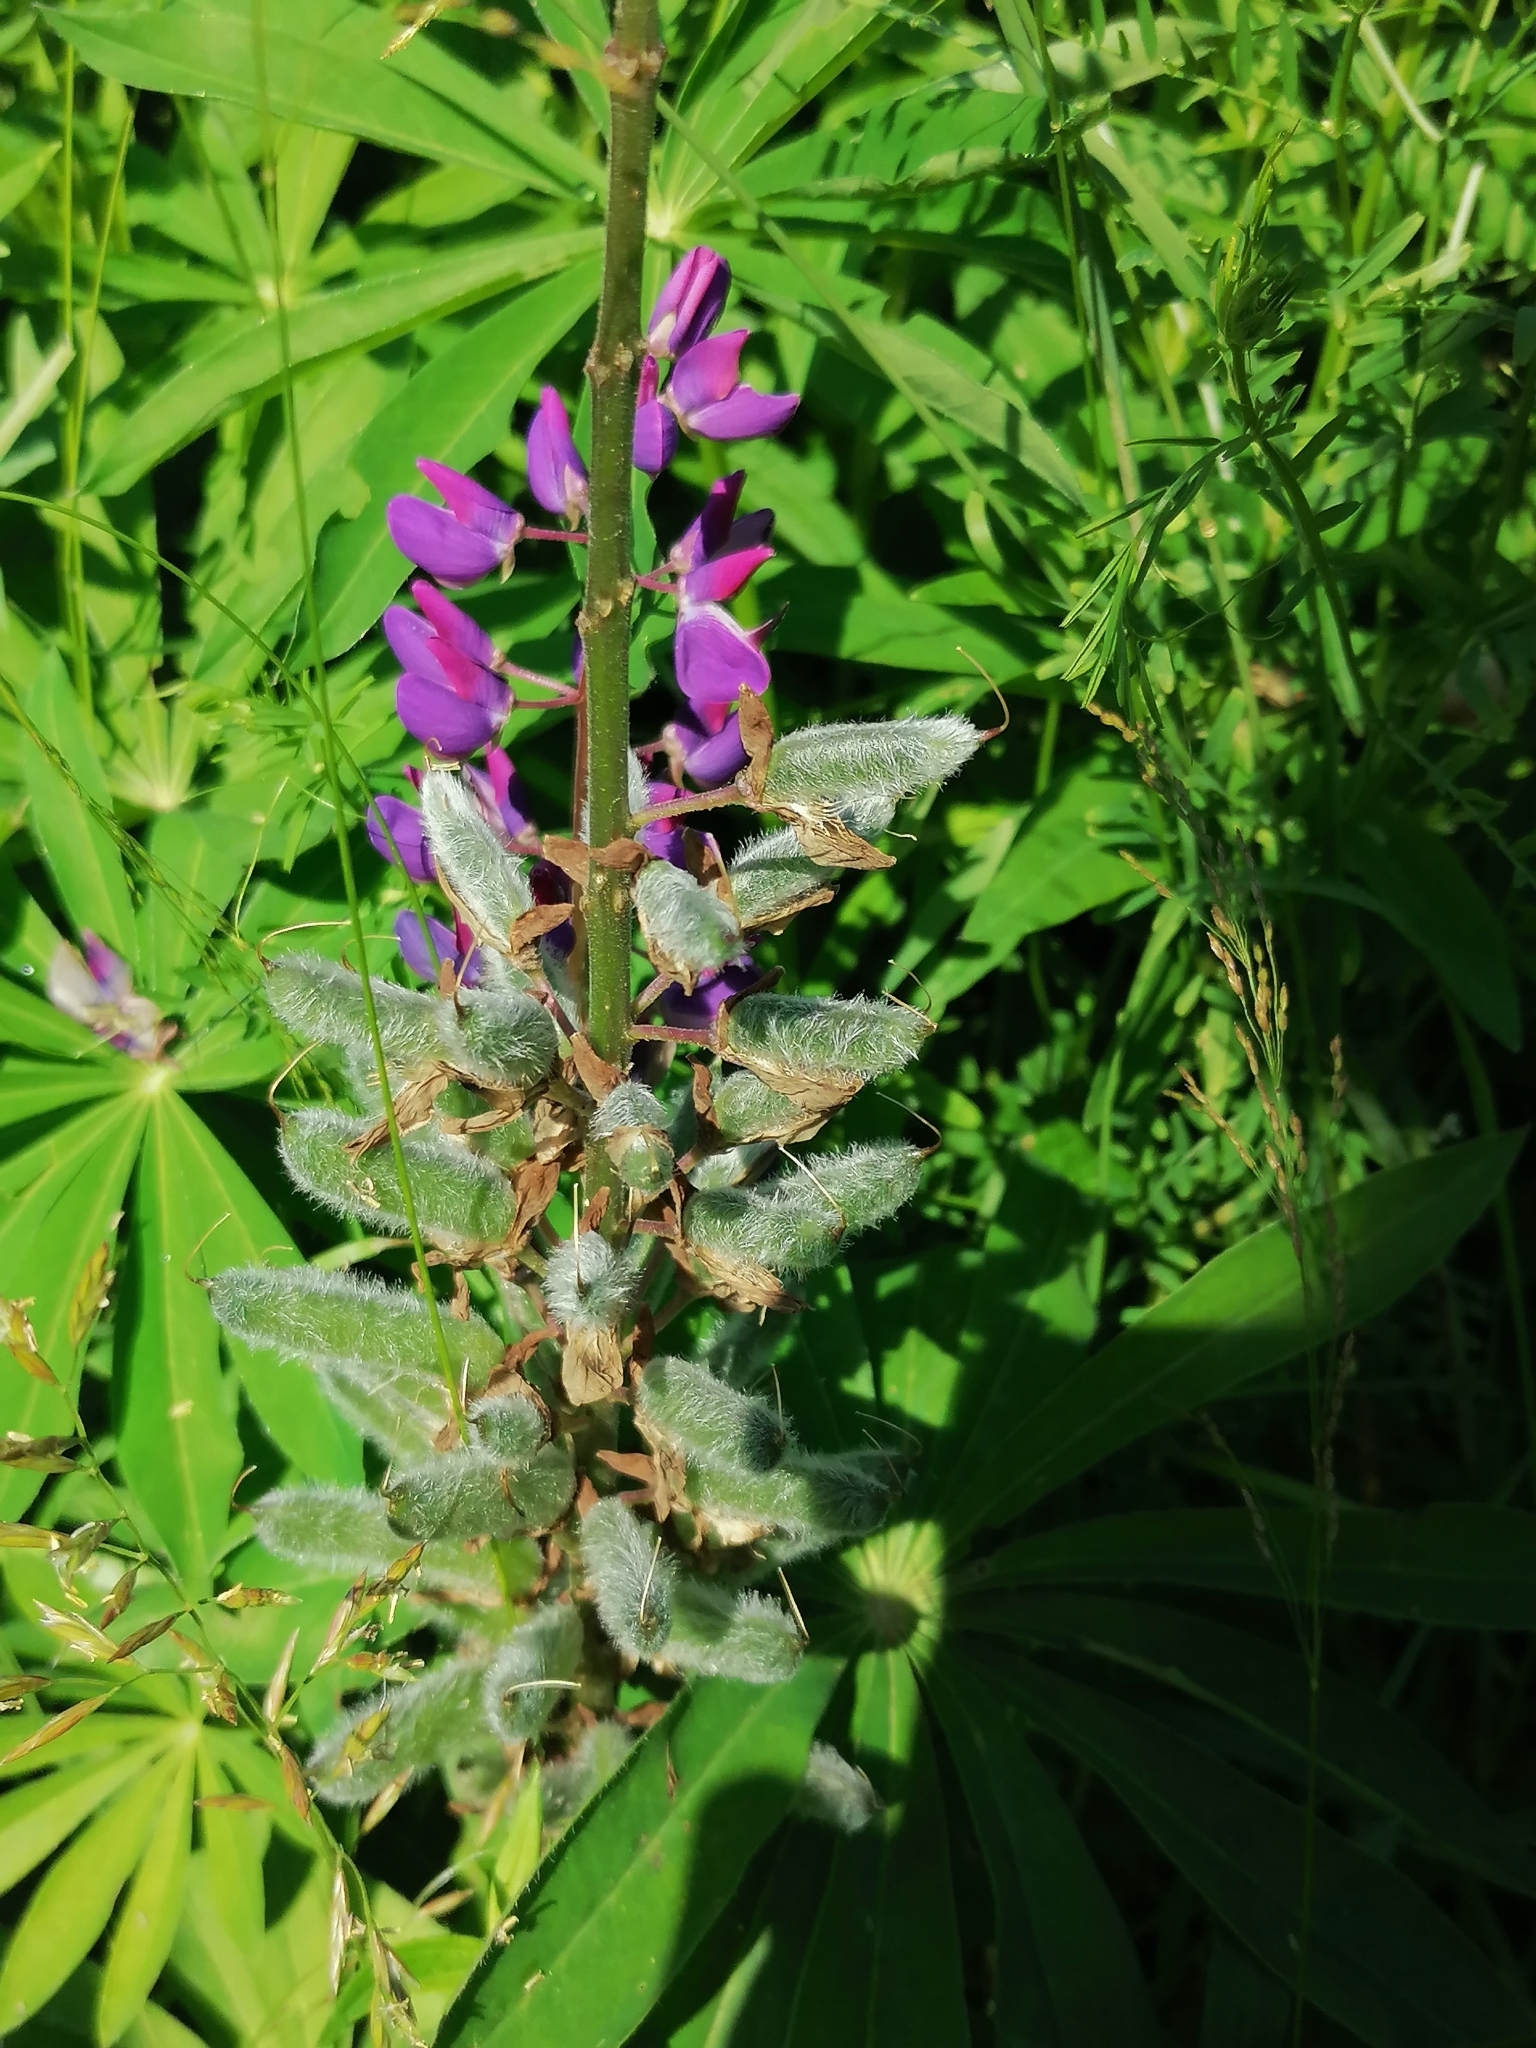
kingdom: Plantae
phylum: Tracheophyta
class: Magnoliopsida
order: Fabales
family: Fabaceae
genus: Lupinus
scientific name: Lupinus polyphyllus
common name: Garden lupin
